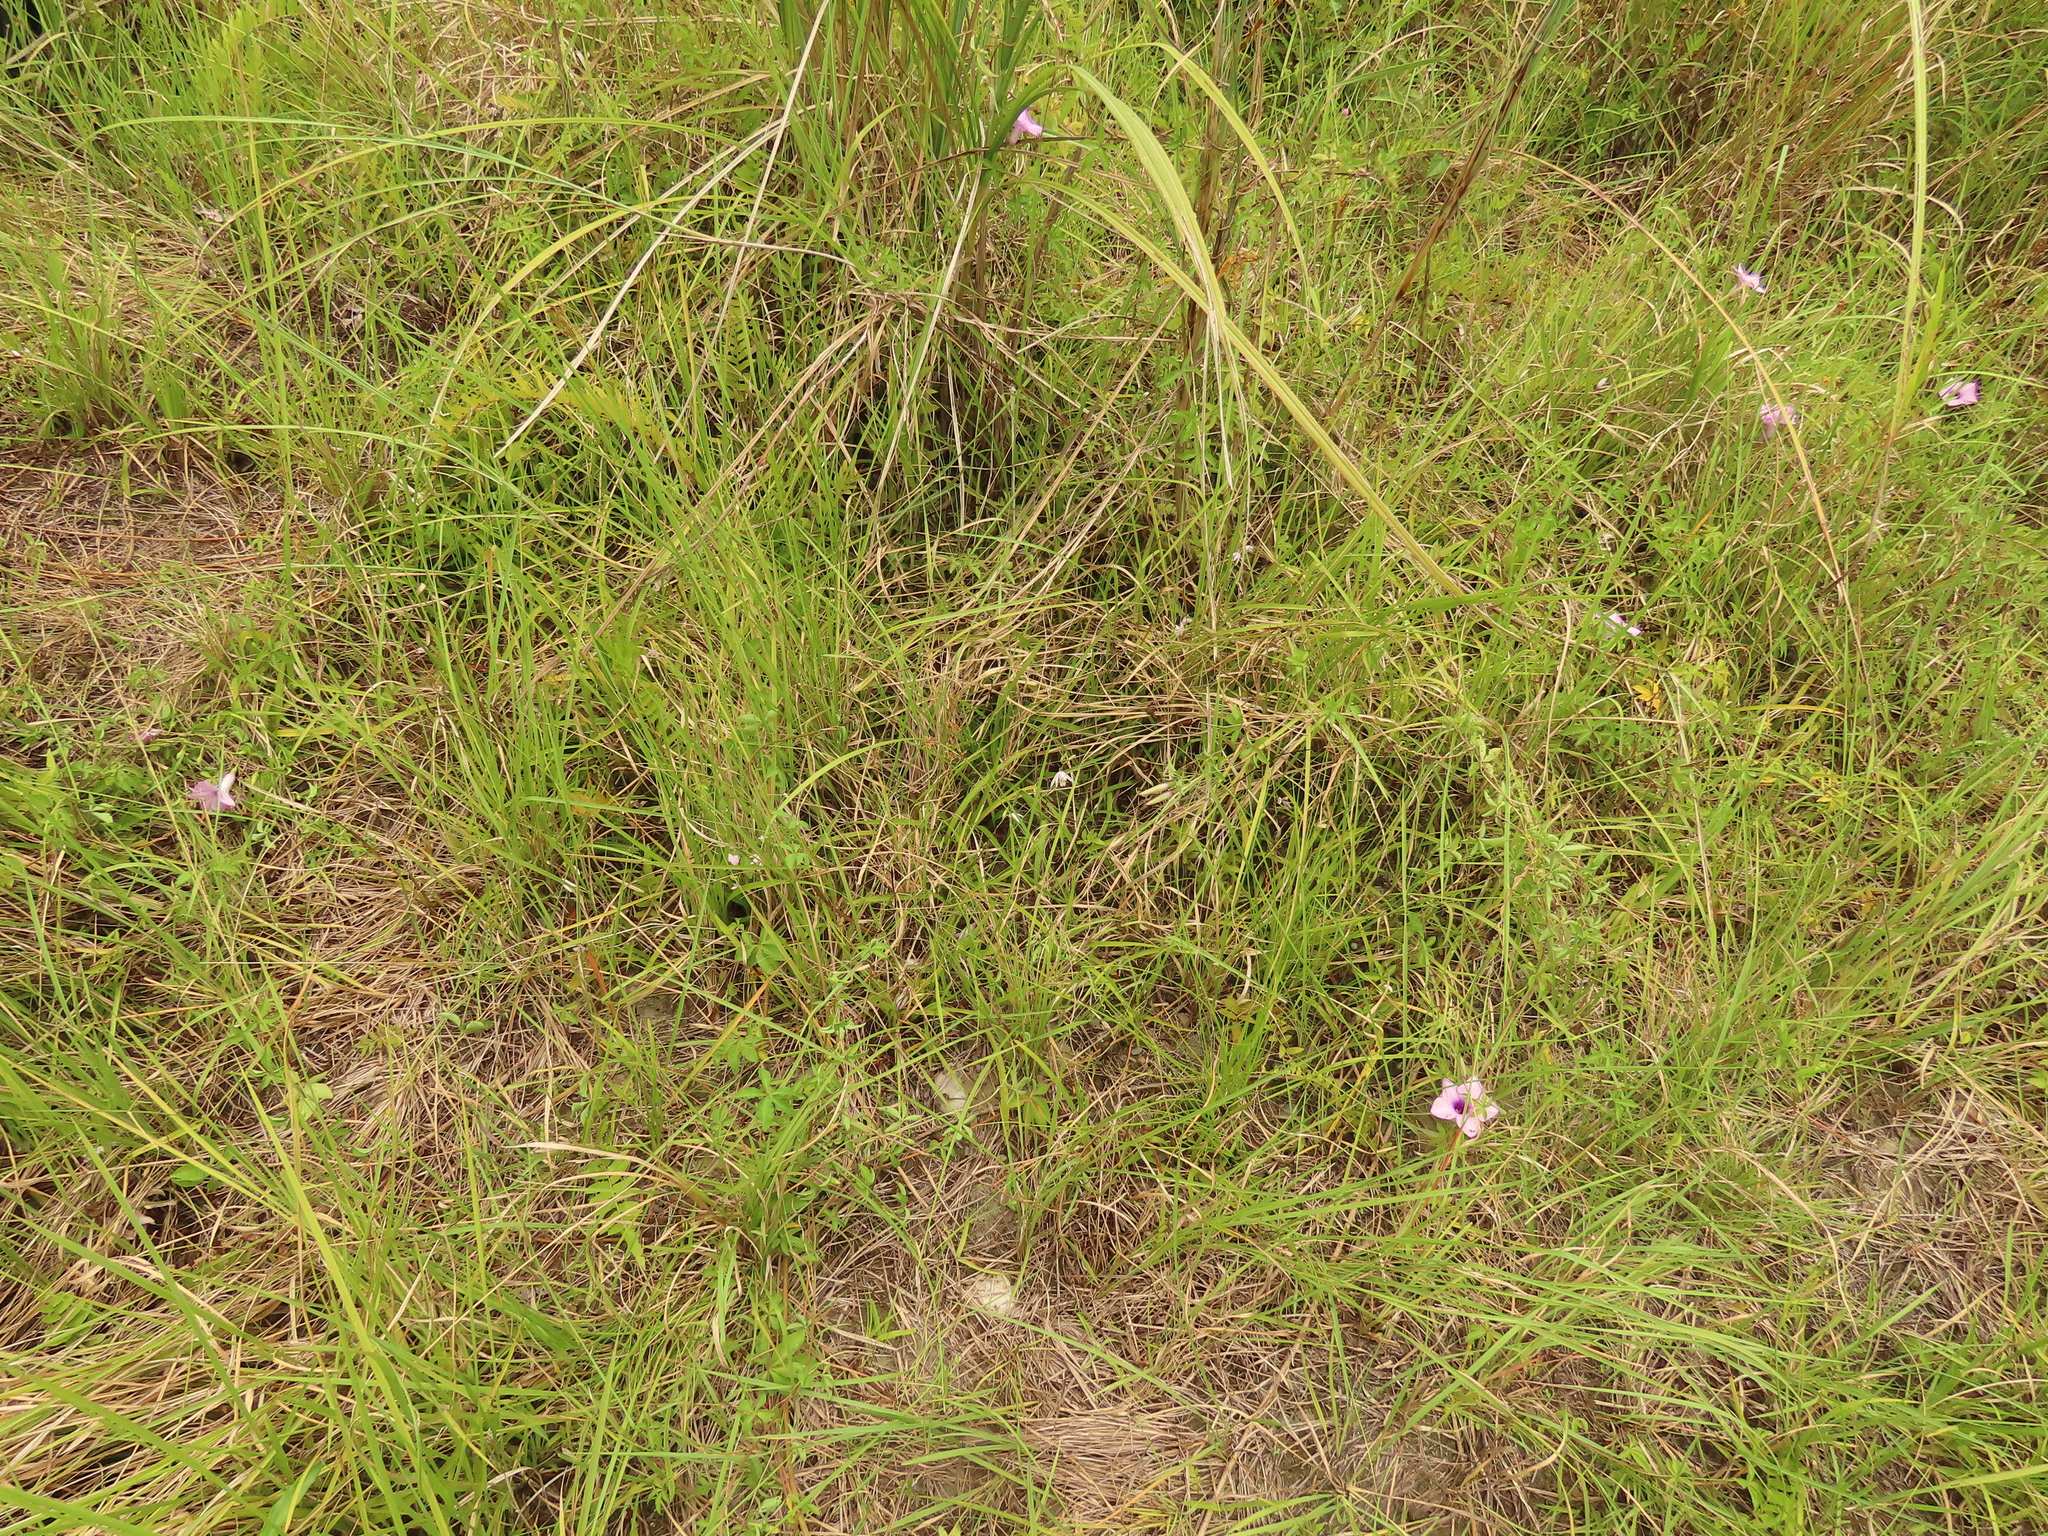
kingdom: Plantae
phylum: Tracheophyta
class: Liliopsida
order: Asparagales
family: Orchidaceae
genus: Bletilla
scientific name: Bletilla formosana
